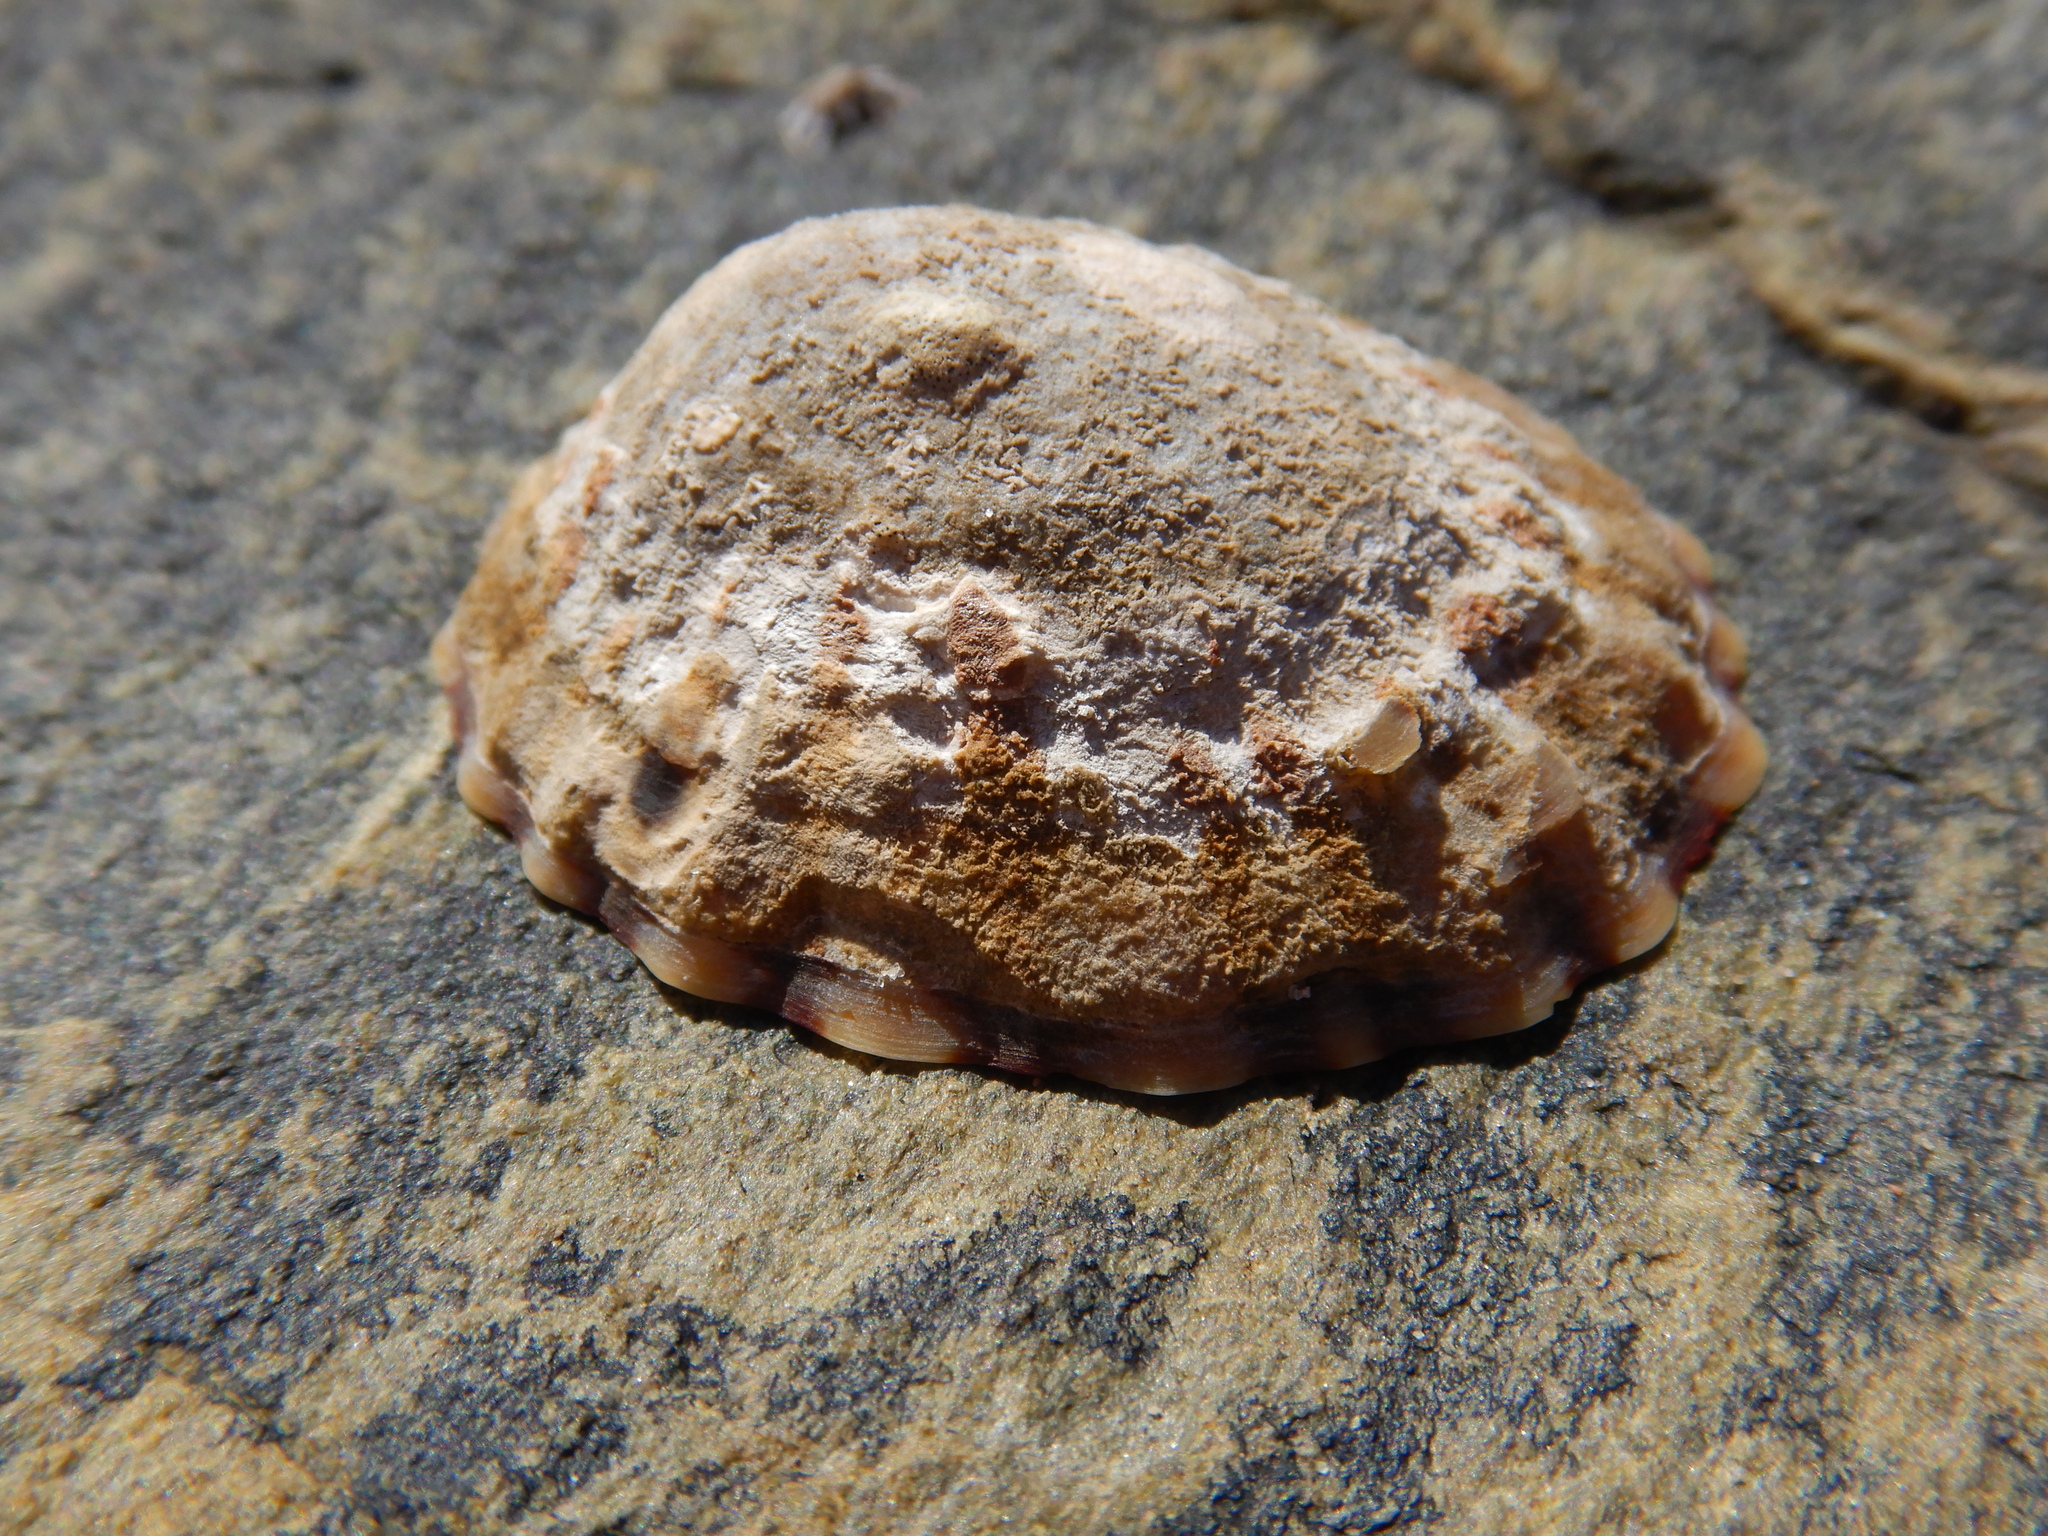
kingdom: Animalia
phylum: Mollusca
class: Gastropoda
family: Nacellidae
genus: Cellana
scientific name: Cellana solida
